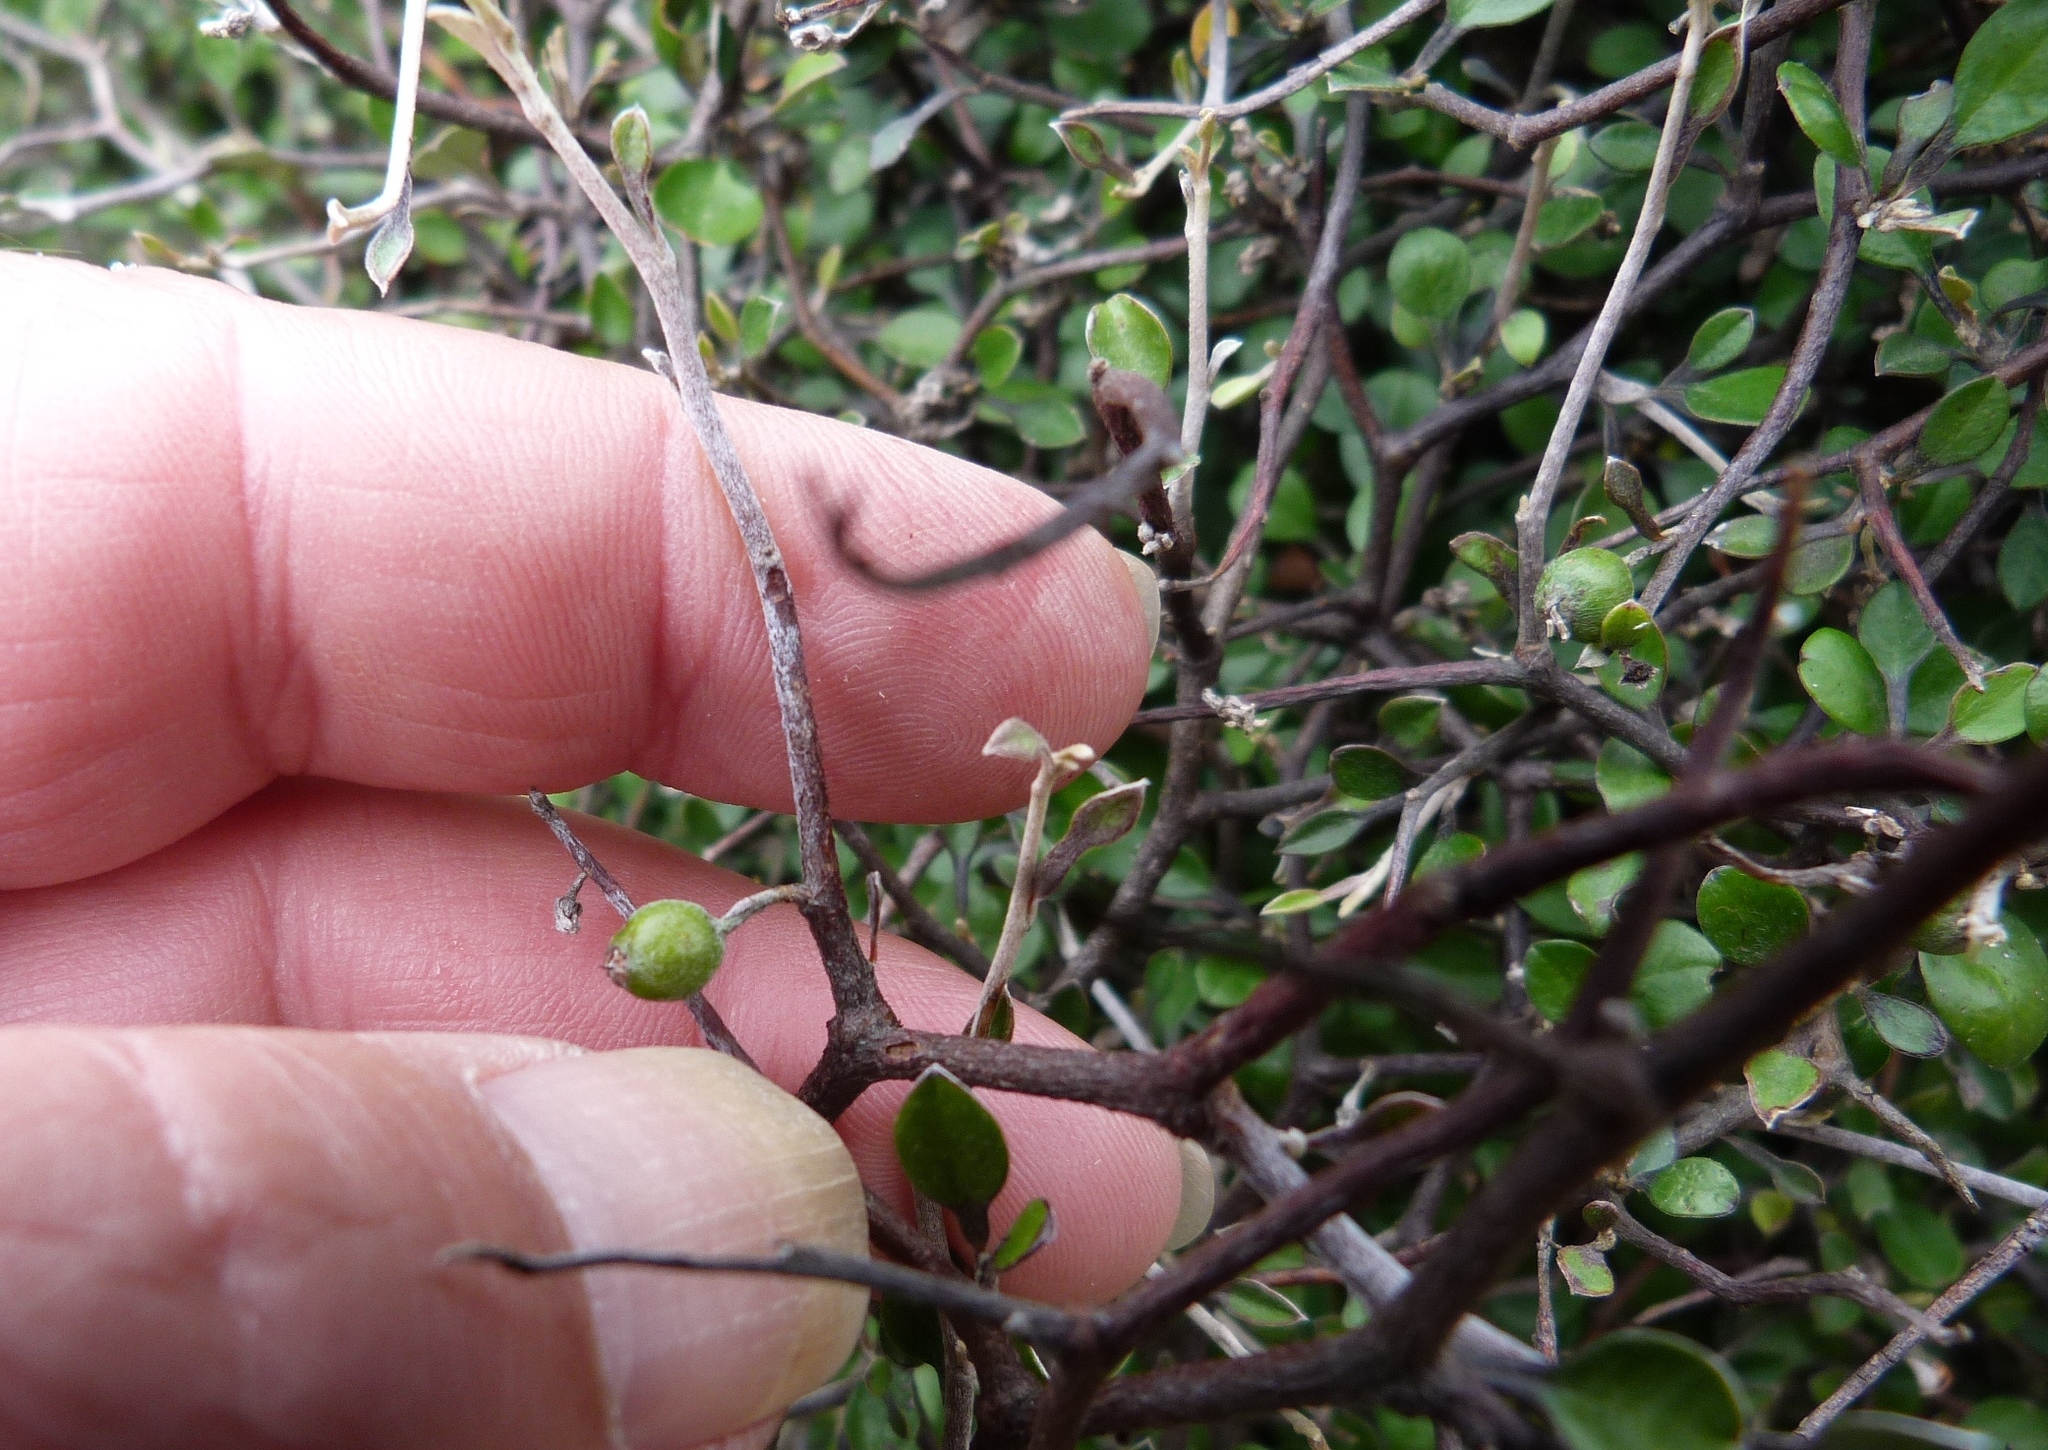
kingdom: Plantae
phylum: Tracheophyta
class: Magnoliopsida
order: Asterales
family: Argophyllaceae
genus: Corokia
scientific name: Corokia cotoneaster
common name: Wire nettingbush
